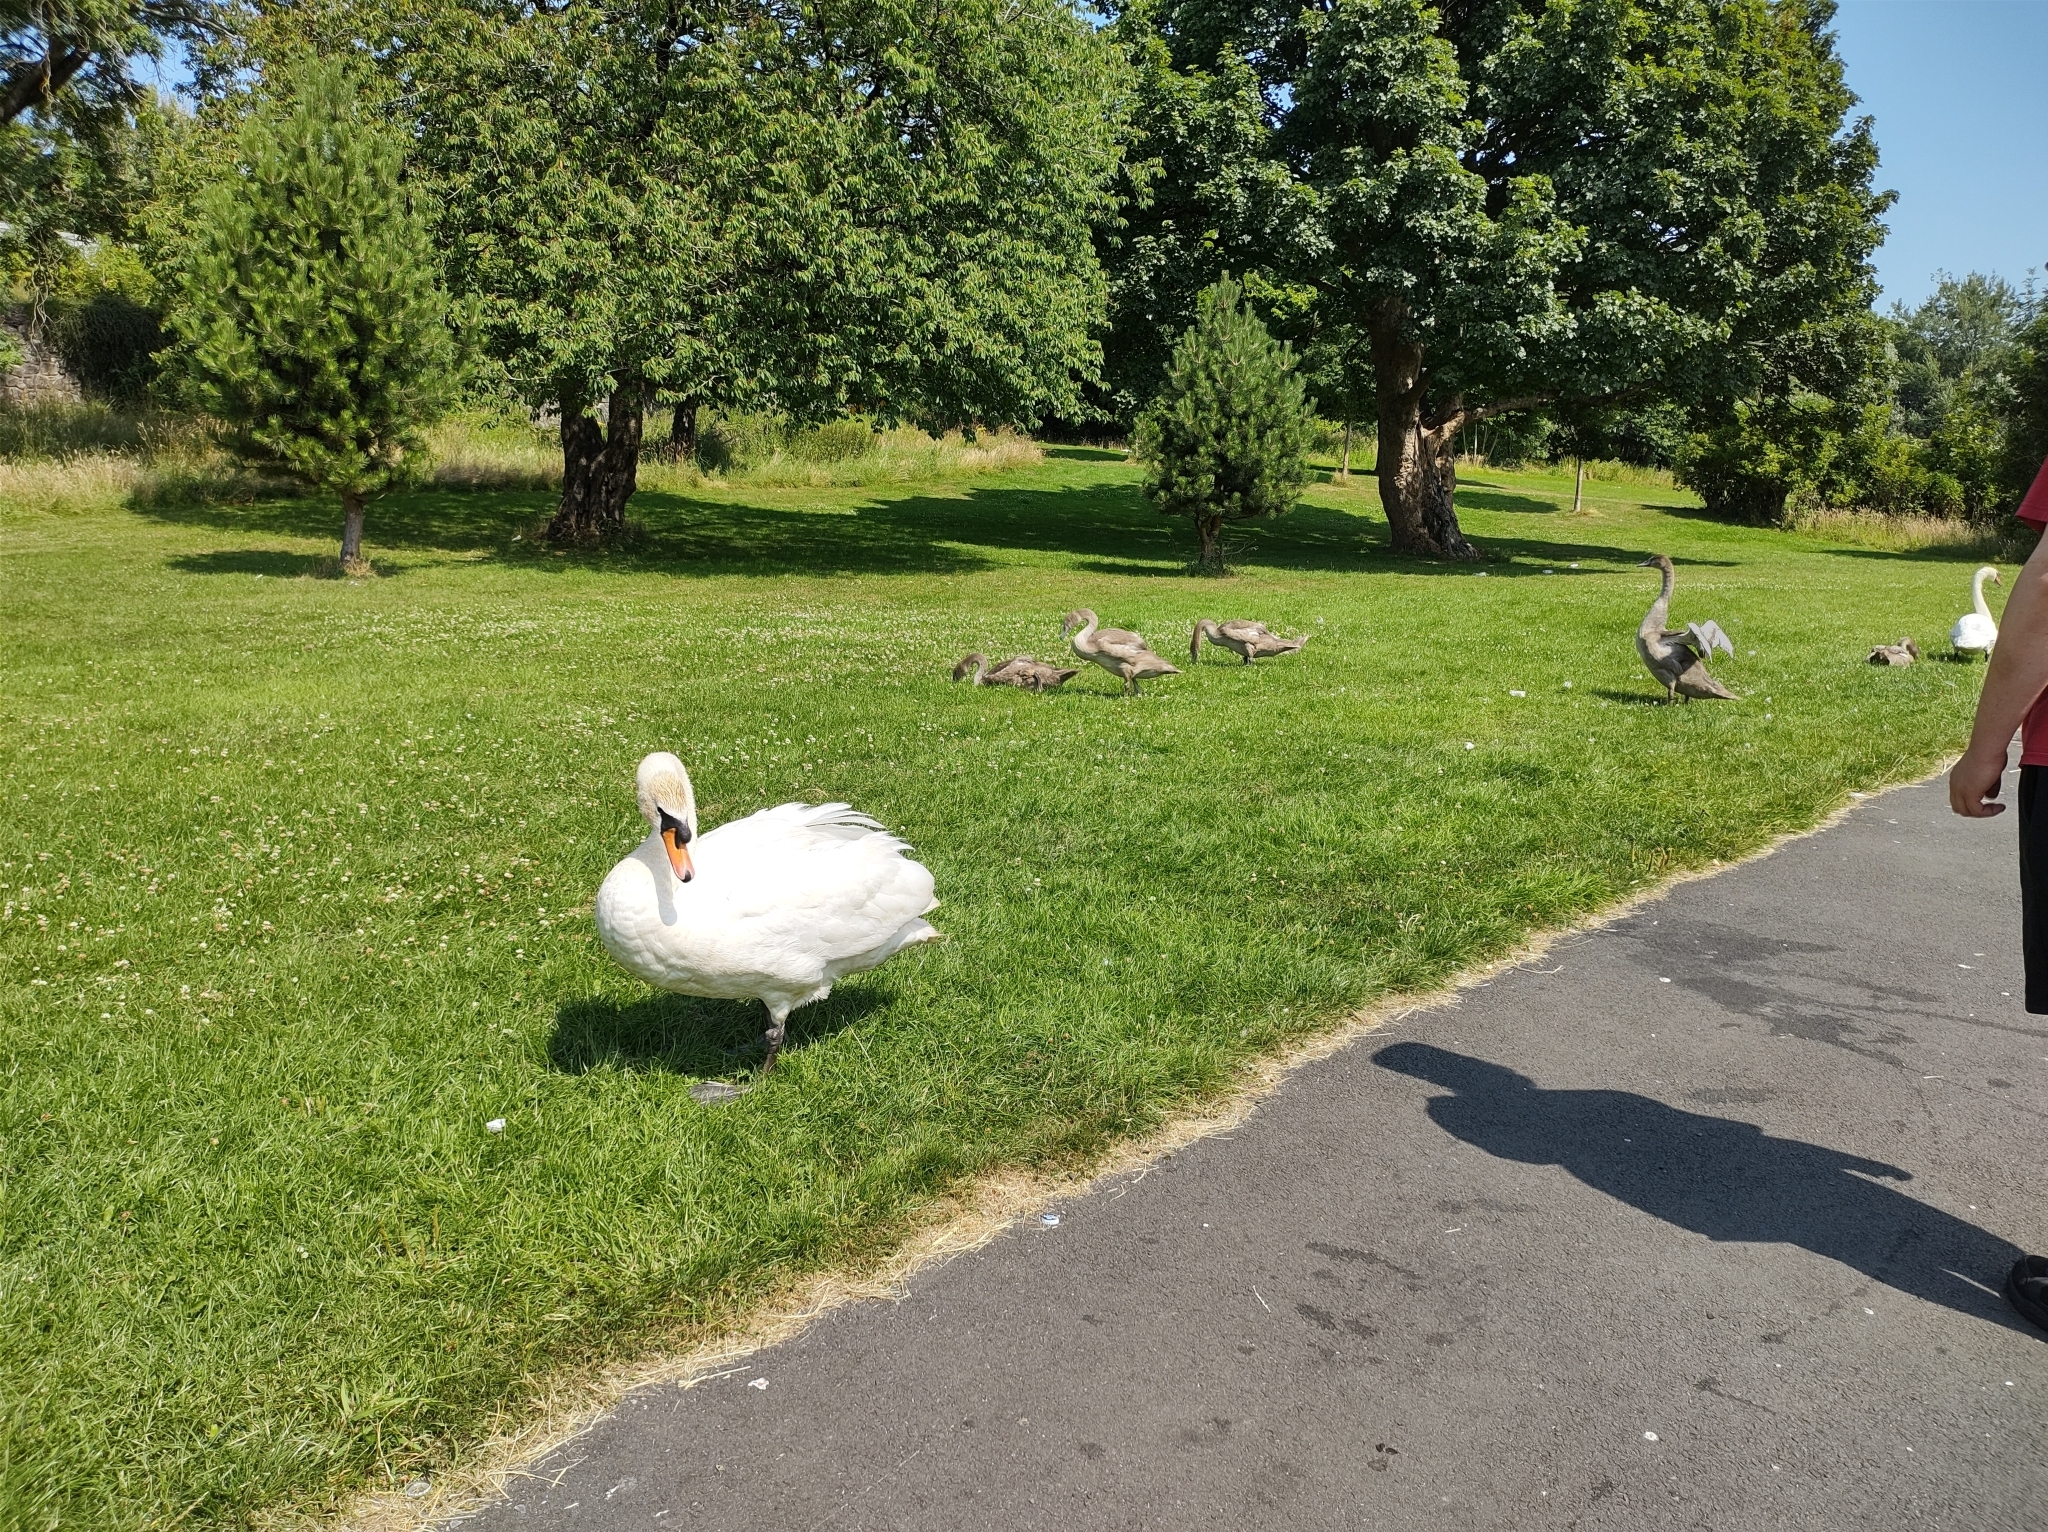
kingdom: Animalia
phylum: Chordata
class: Aves
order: Anseriformes
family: Anatidae
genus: Cygnus
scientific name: Cygnus olor
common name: Mute swan
